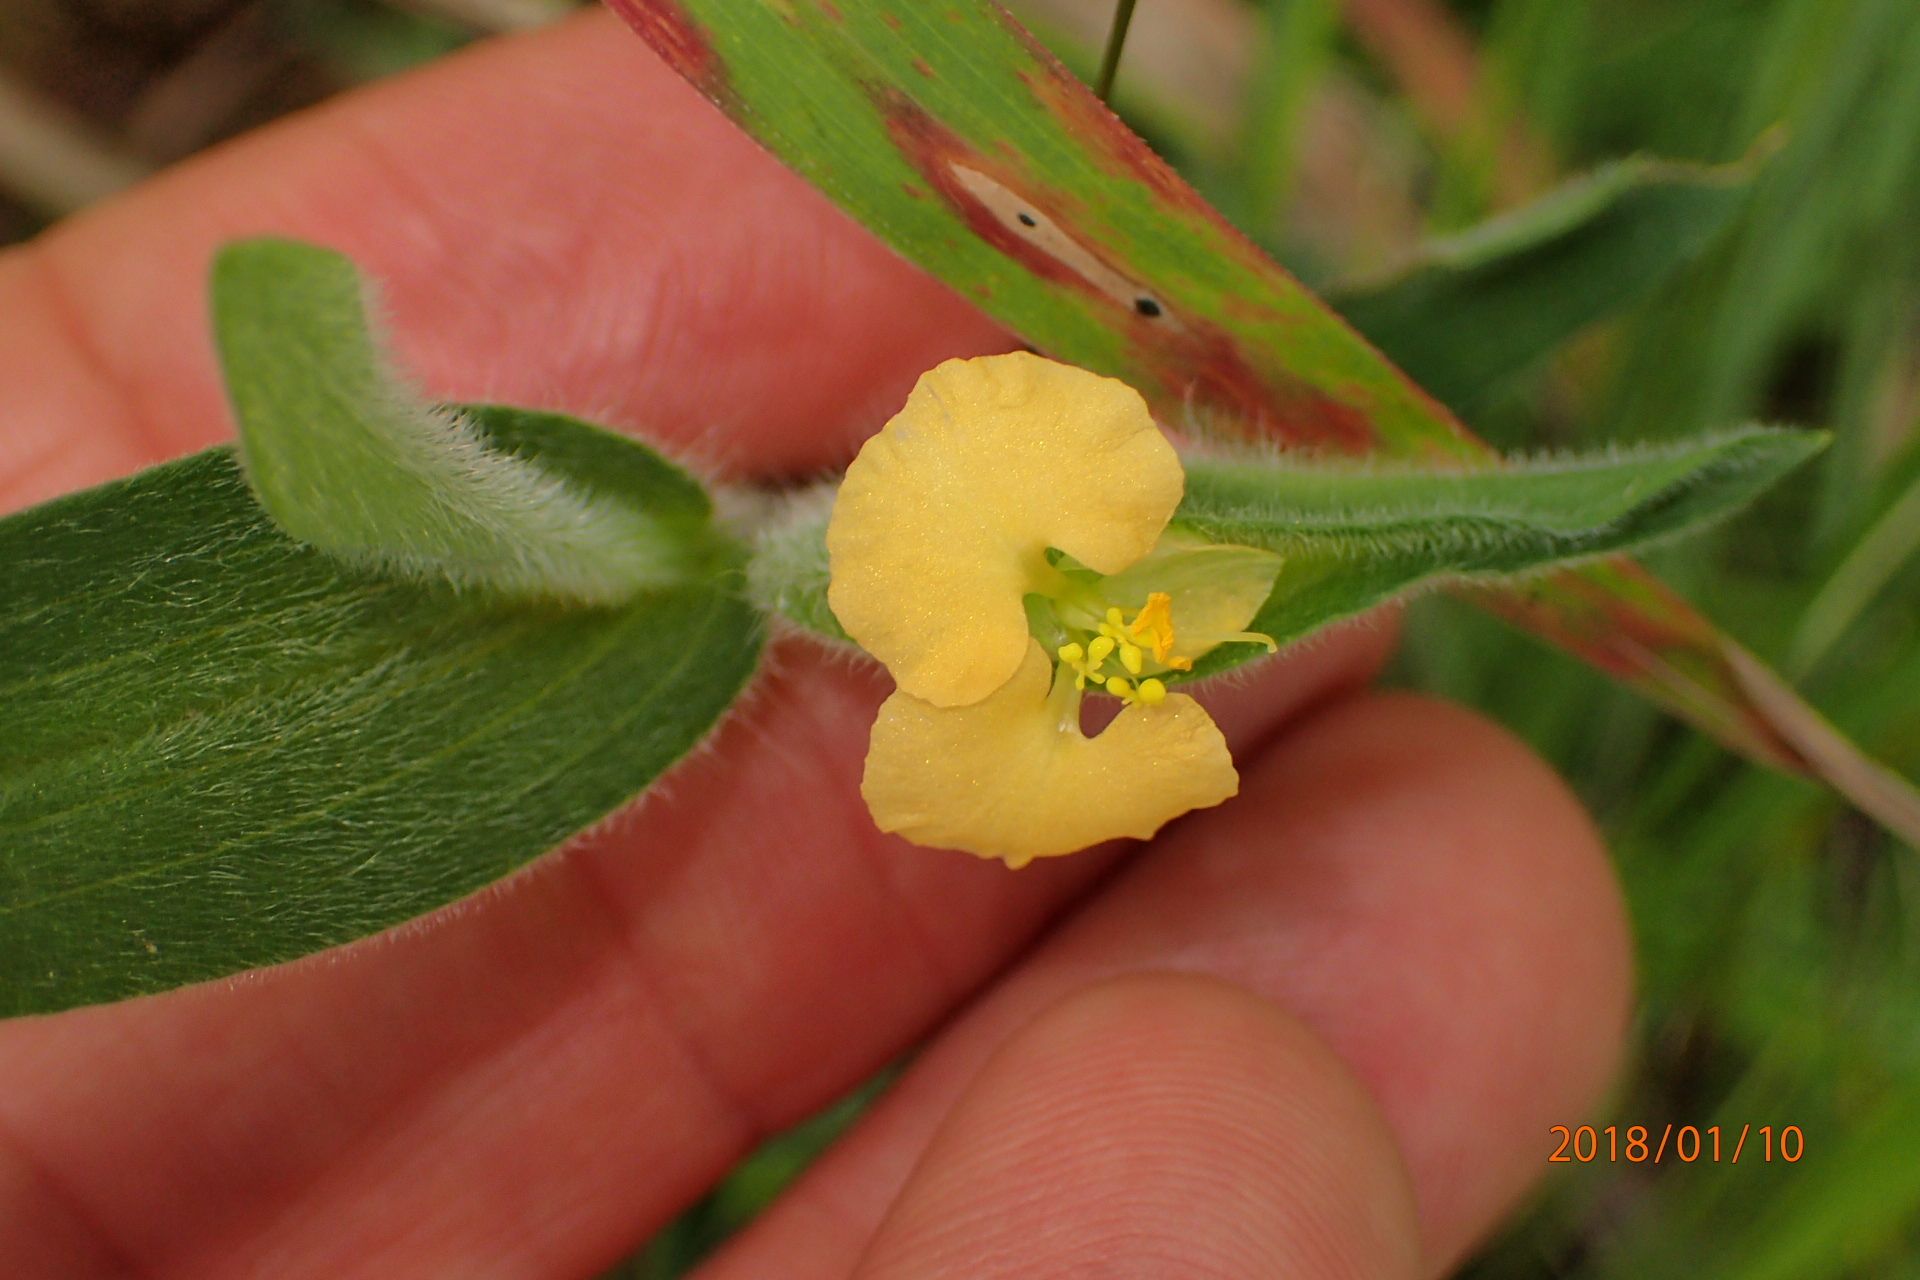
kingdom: Plantae
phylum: Tracheophyta
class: Liliopsida
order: Commelinales
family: Commelinaceae
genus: Commelina
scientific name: Commelina africana
